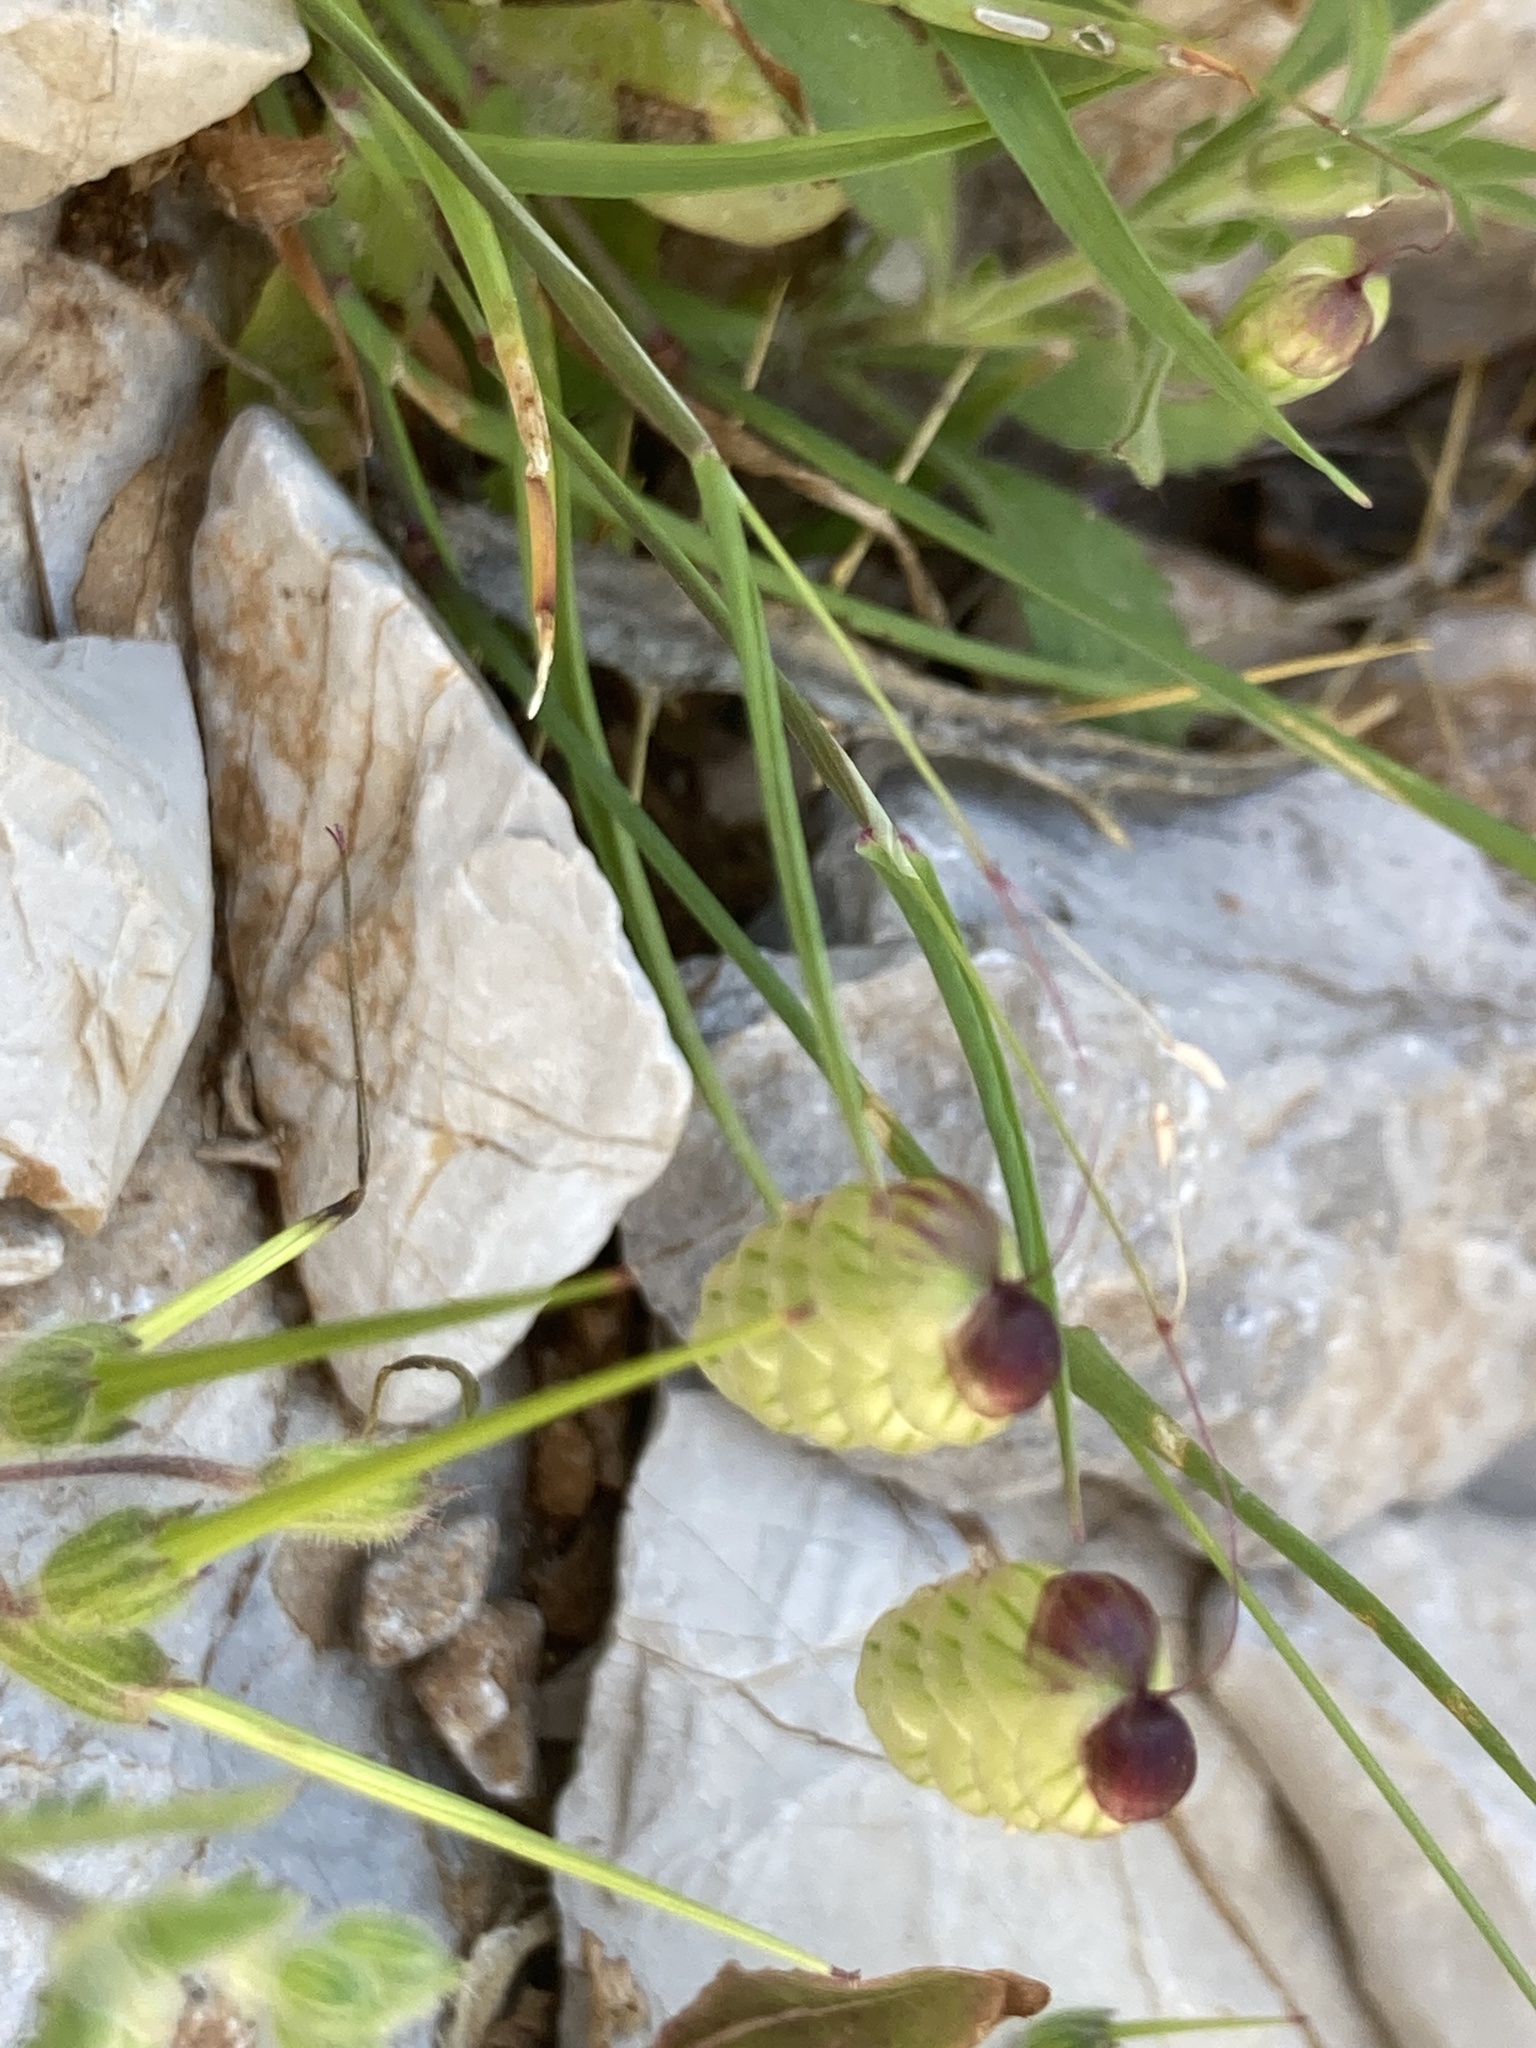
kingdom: Plantae
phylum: Tracheophyta
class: Liliopsida
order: Poales
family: Poaceae
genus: Briza
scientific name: Briza maxima
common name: Big quakinggrass
